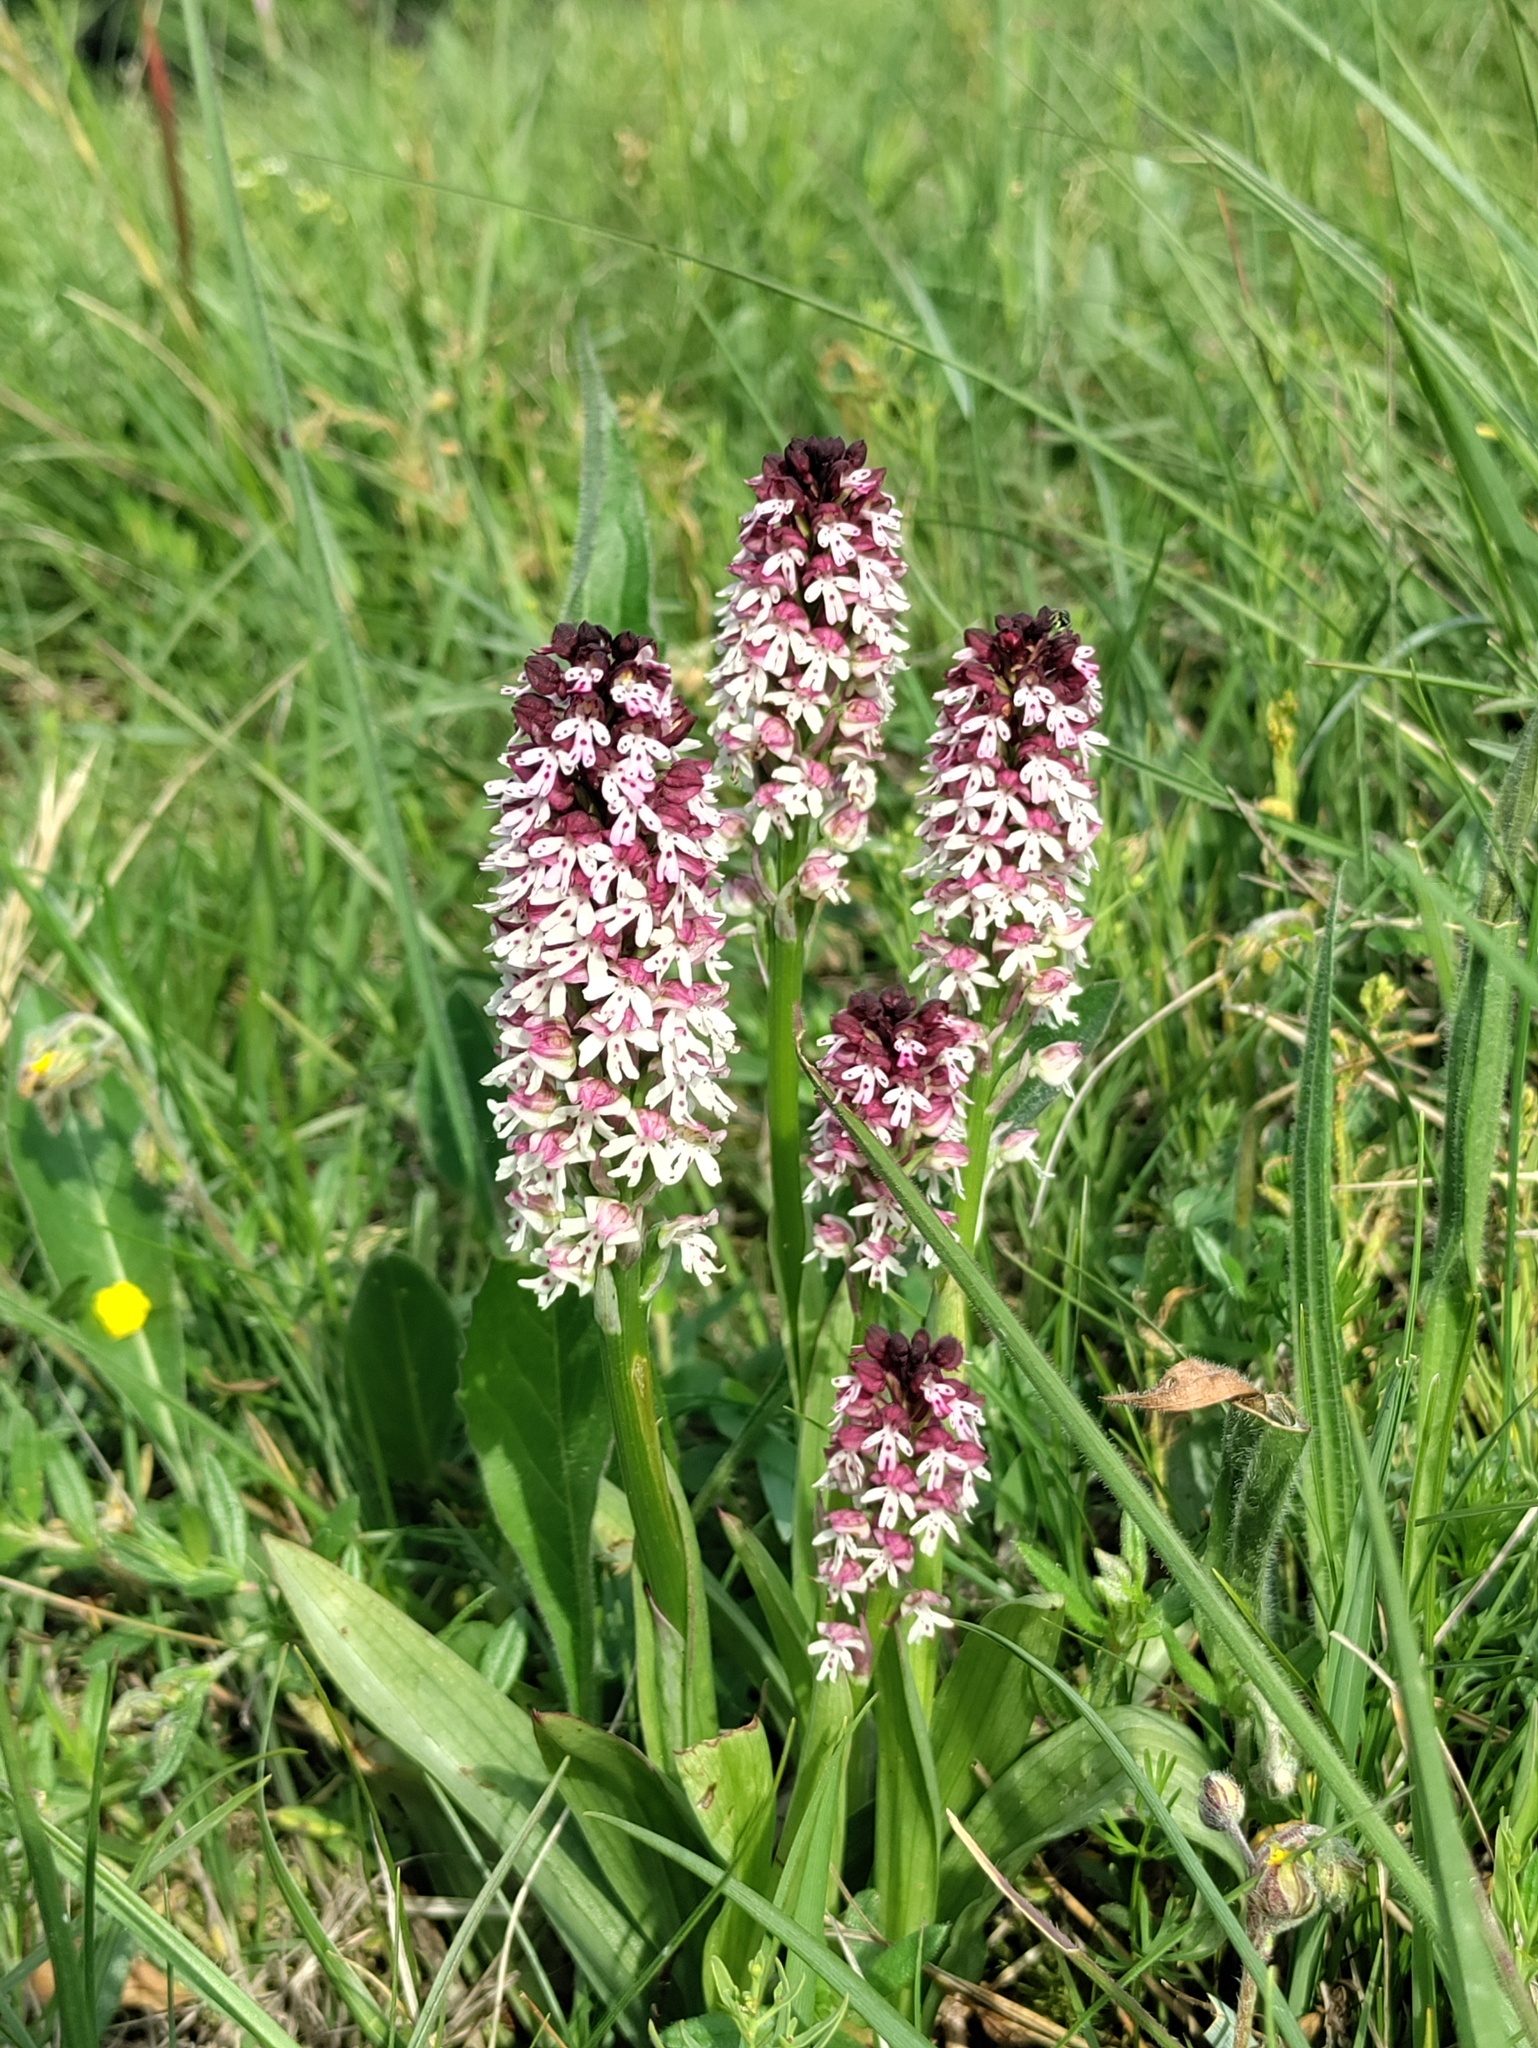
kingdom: Plantae
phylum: Tracheophyta
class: Liliopsida
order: Asparagales
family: Orchidaceae
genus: Neotinea
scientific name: Neotinea ustulata
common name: Burnt orchid
